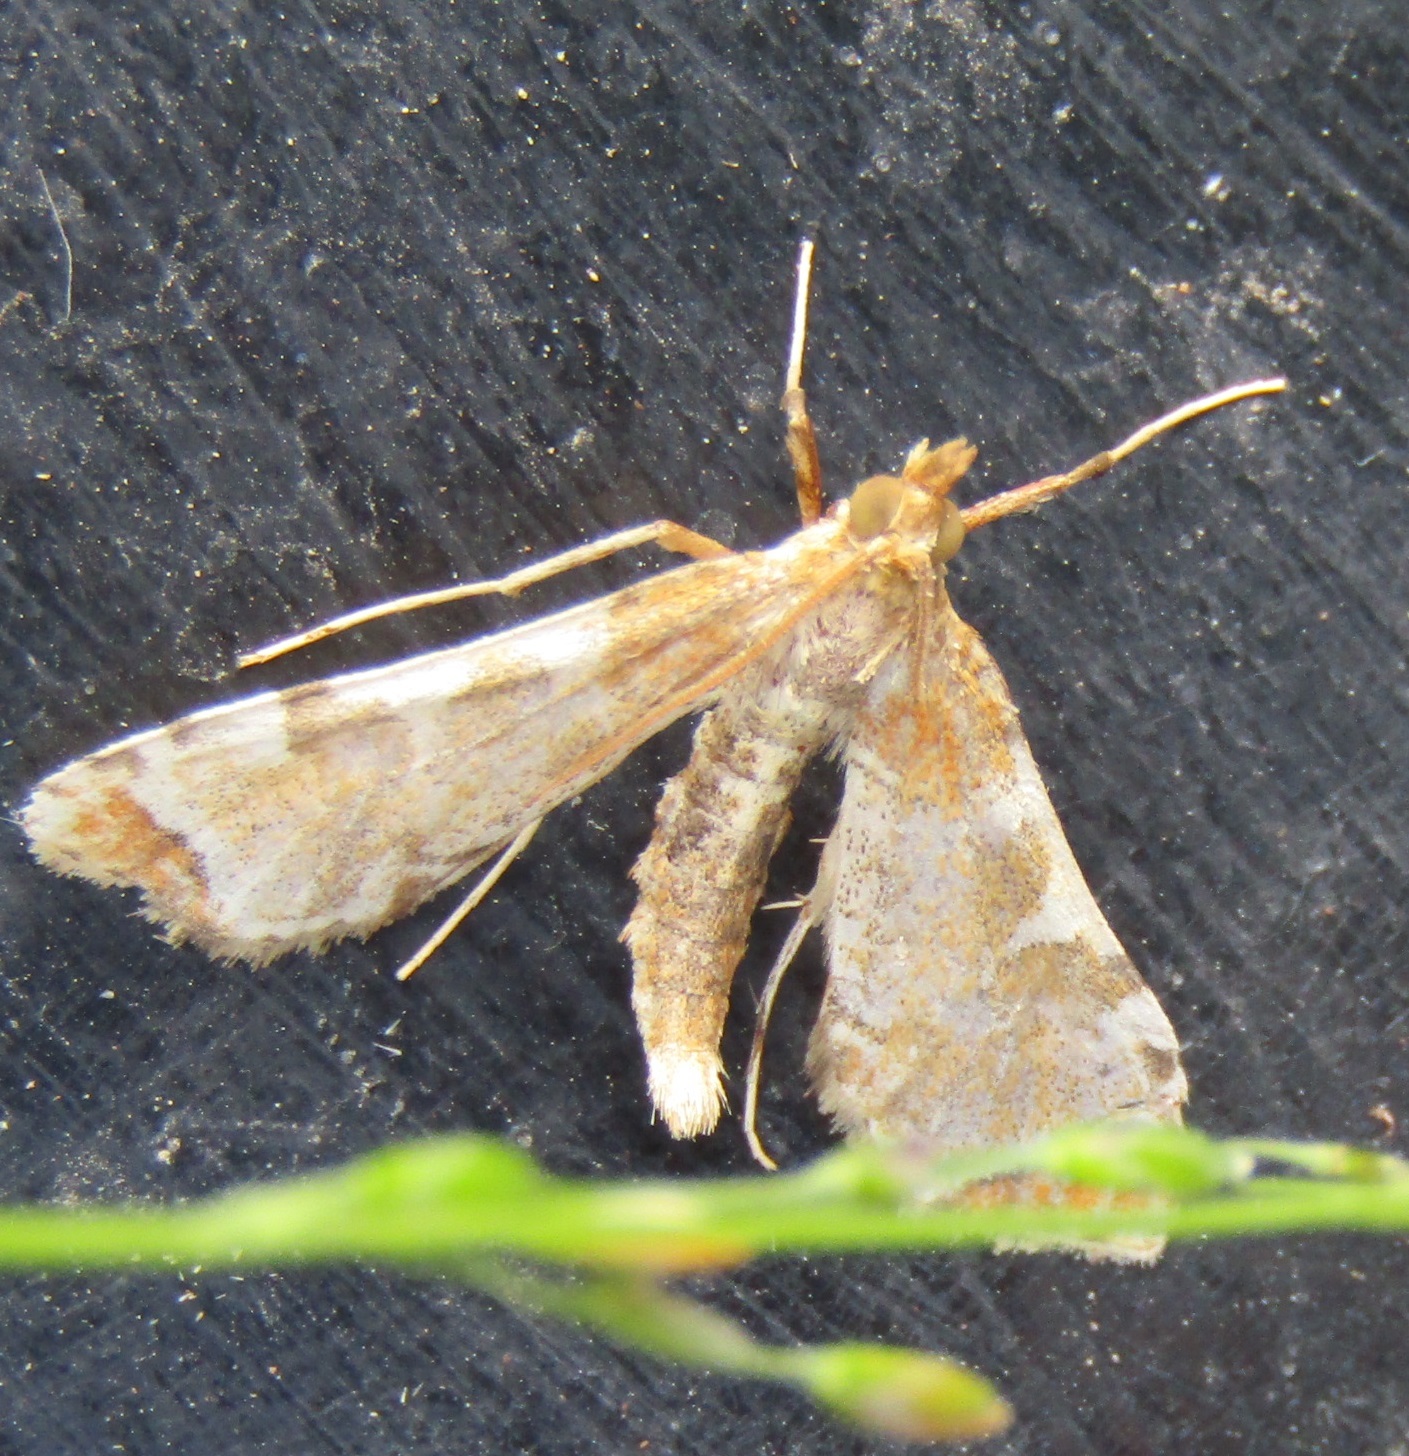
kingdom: Animalia
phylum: Arthropoda
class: Insecta
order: Lepidoptera
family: Crambidae
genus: Sceliodes
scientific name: Sceliodes cordalis
